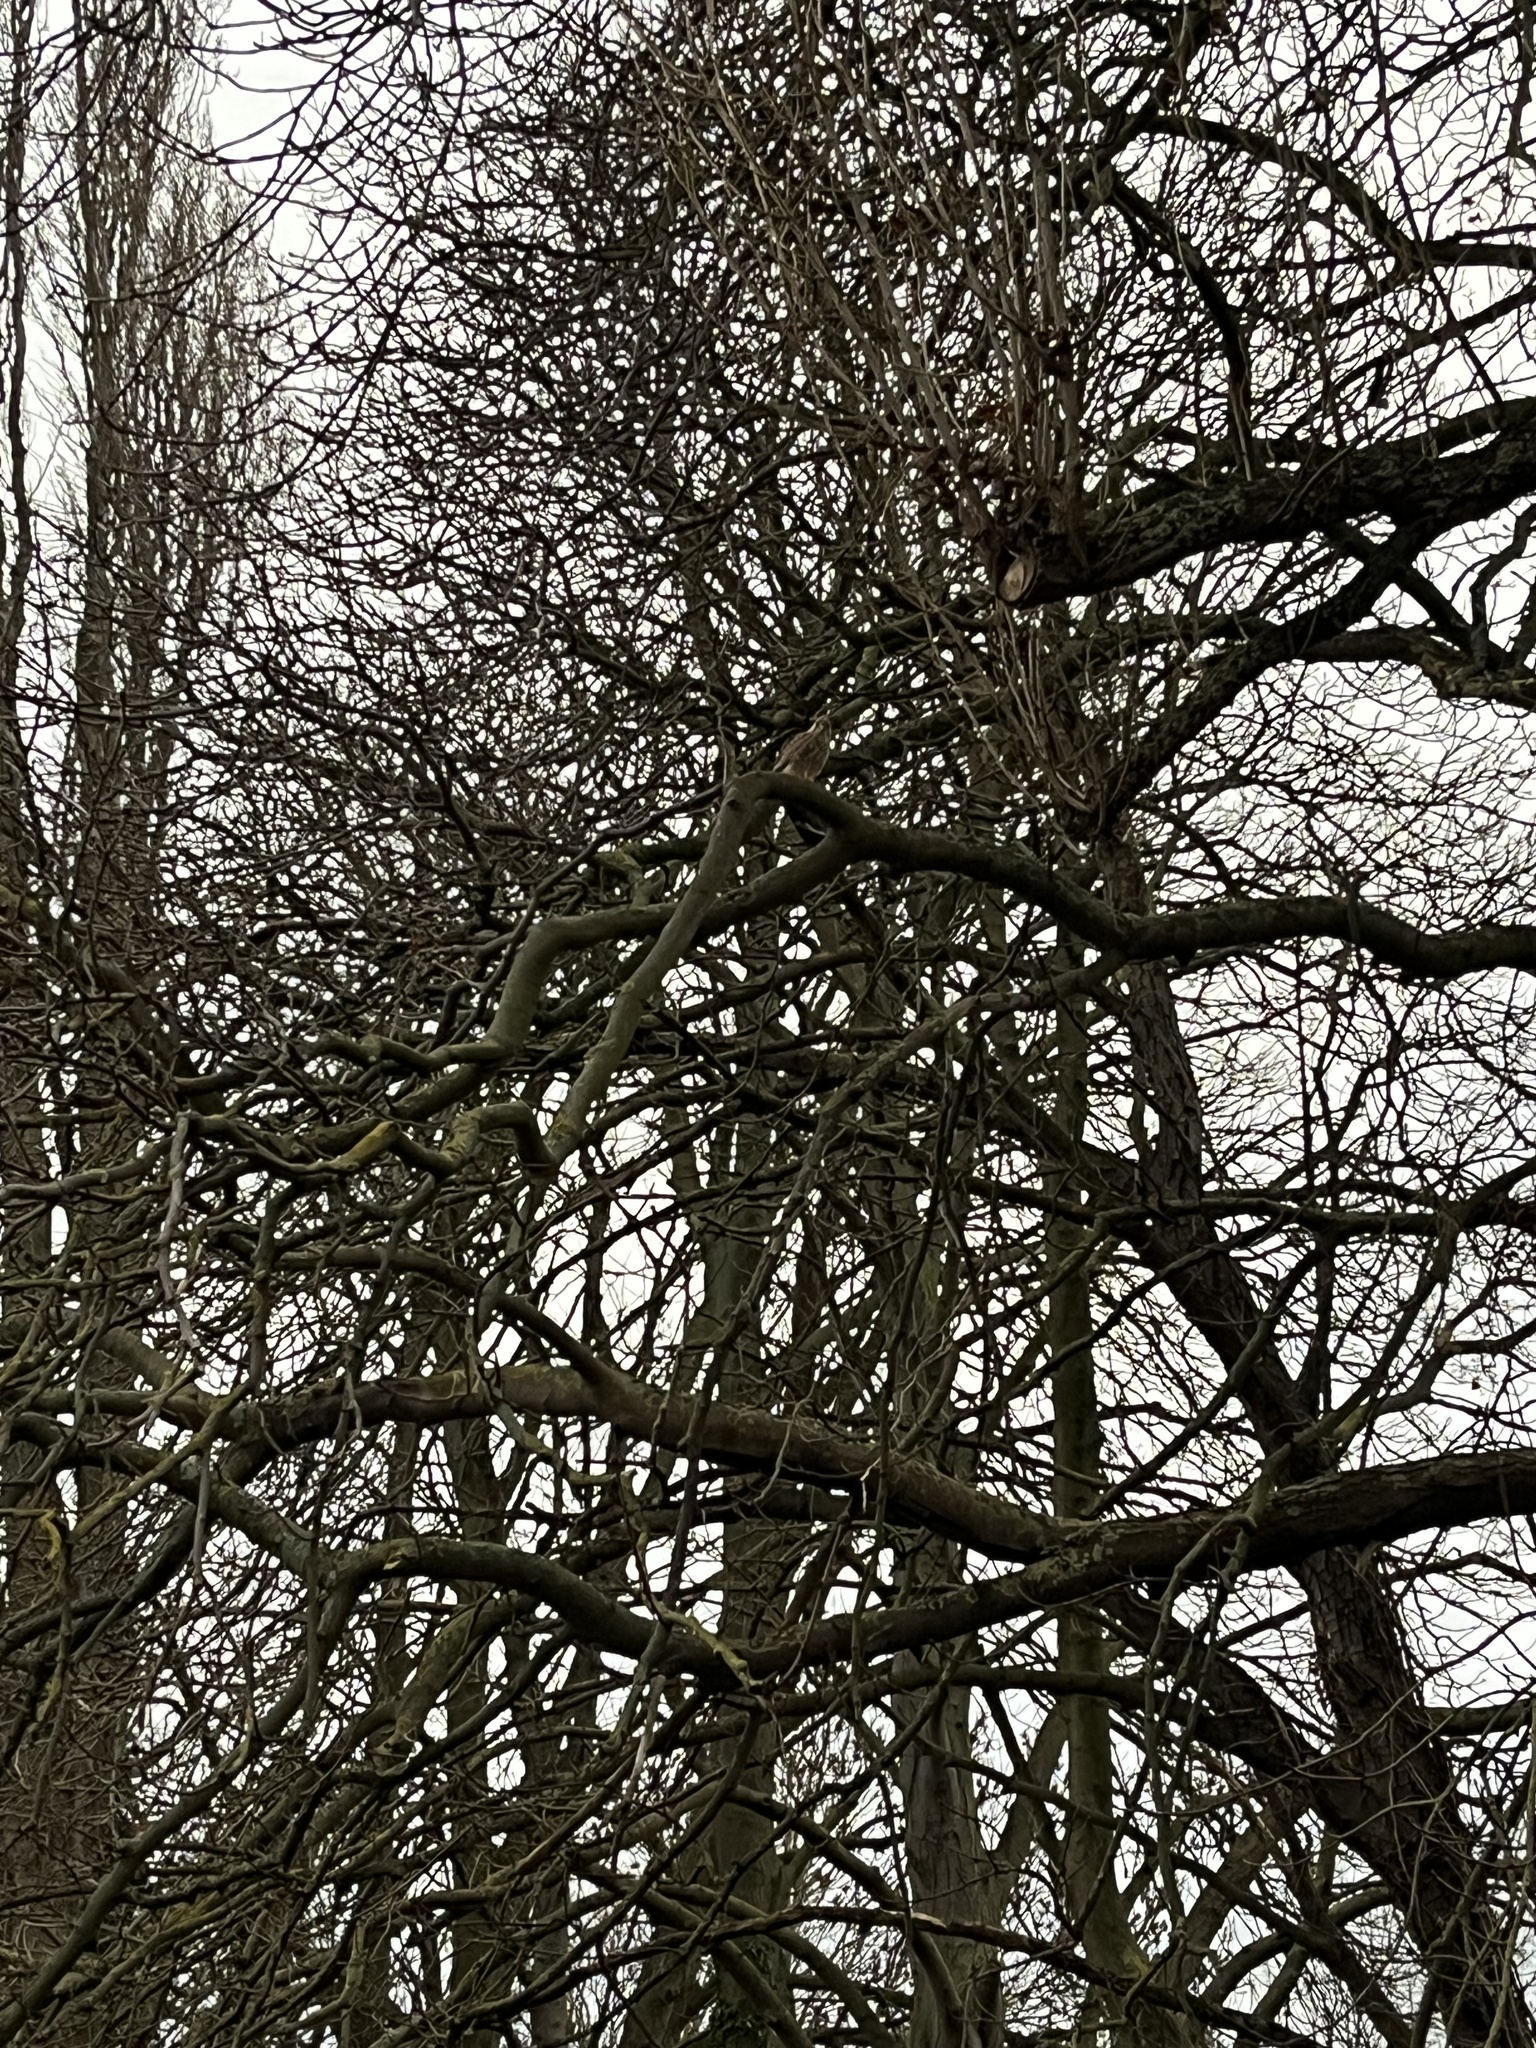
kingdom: Animalia
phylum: Chordata
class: Aves
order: Falconiformes
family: Falconidae
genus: Falco
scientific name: Falco tinnunculus
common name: Common kestrel
